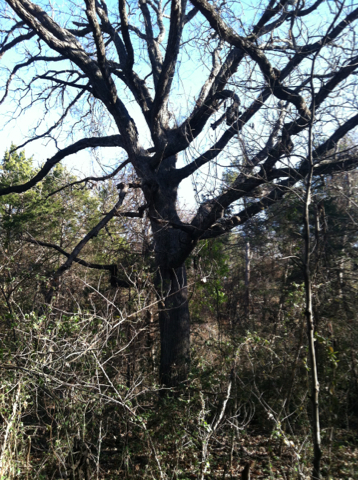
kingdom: Plantae
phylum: Tracheophyta
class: Magnoliopsida
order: Fagales
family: Fagaceae
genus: Quercus
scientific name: Quercus macrocarpa
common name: Bur oak
